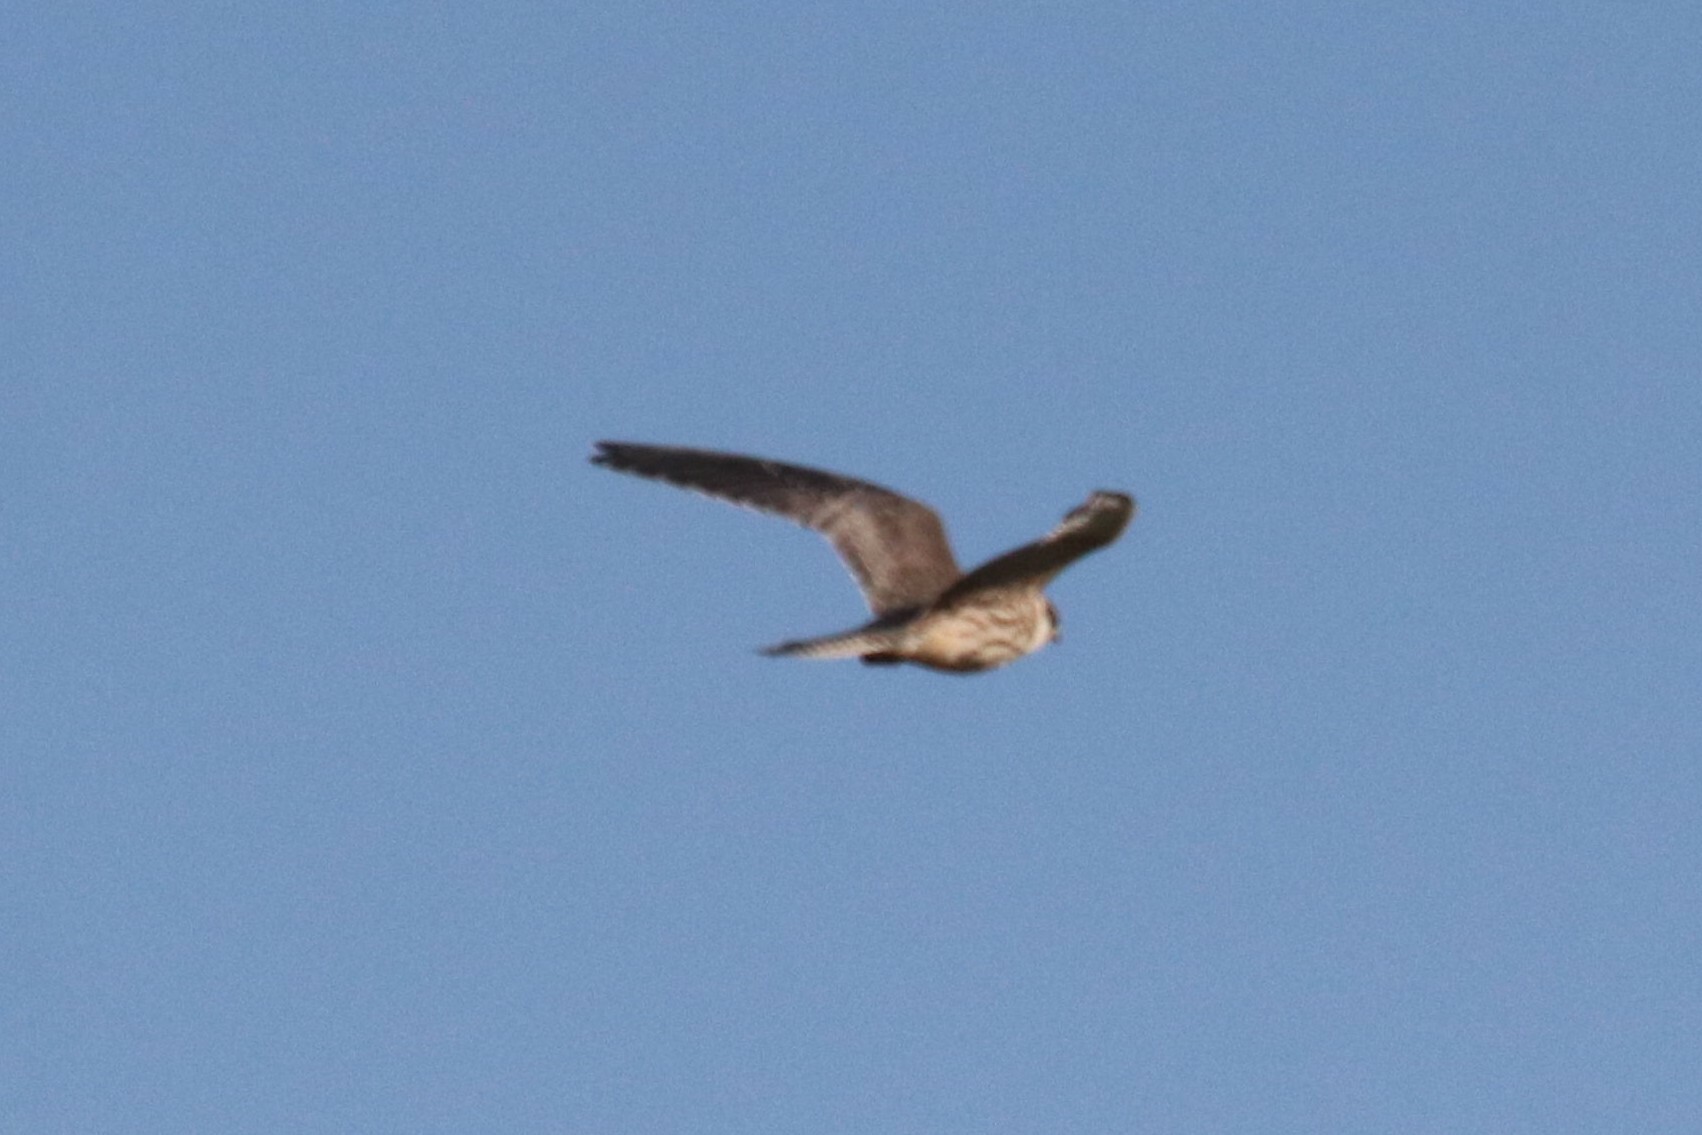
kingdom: Animalia
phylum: Chordata
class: Aves
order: Falconiformes
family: Falconidae
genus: Falco
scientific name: Falco vespertinus
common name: Red-footed falcon
